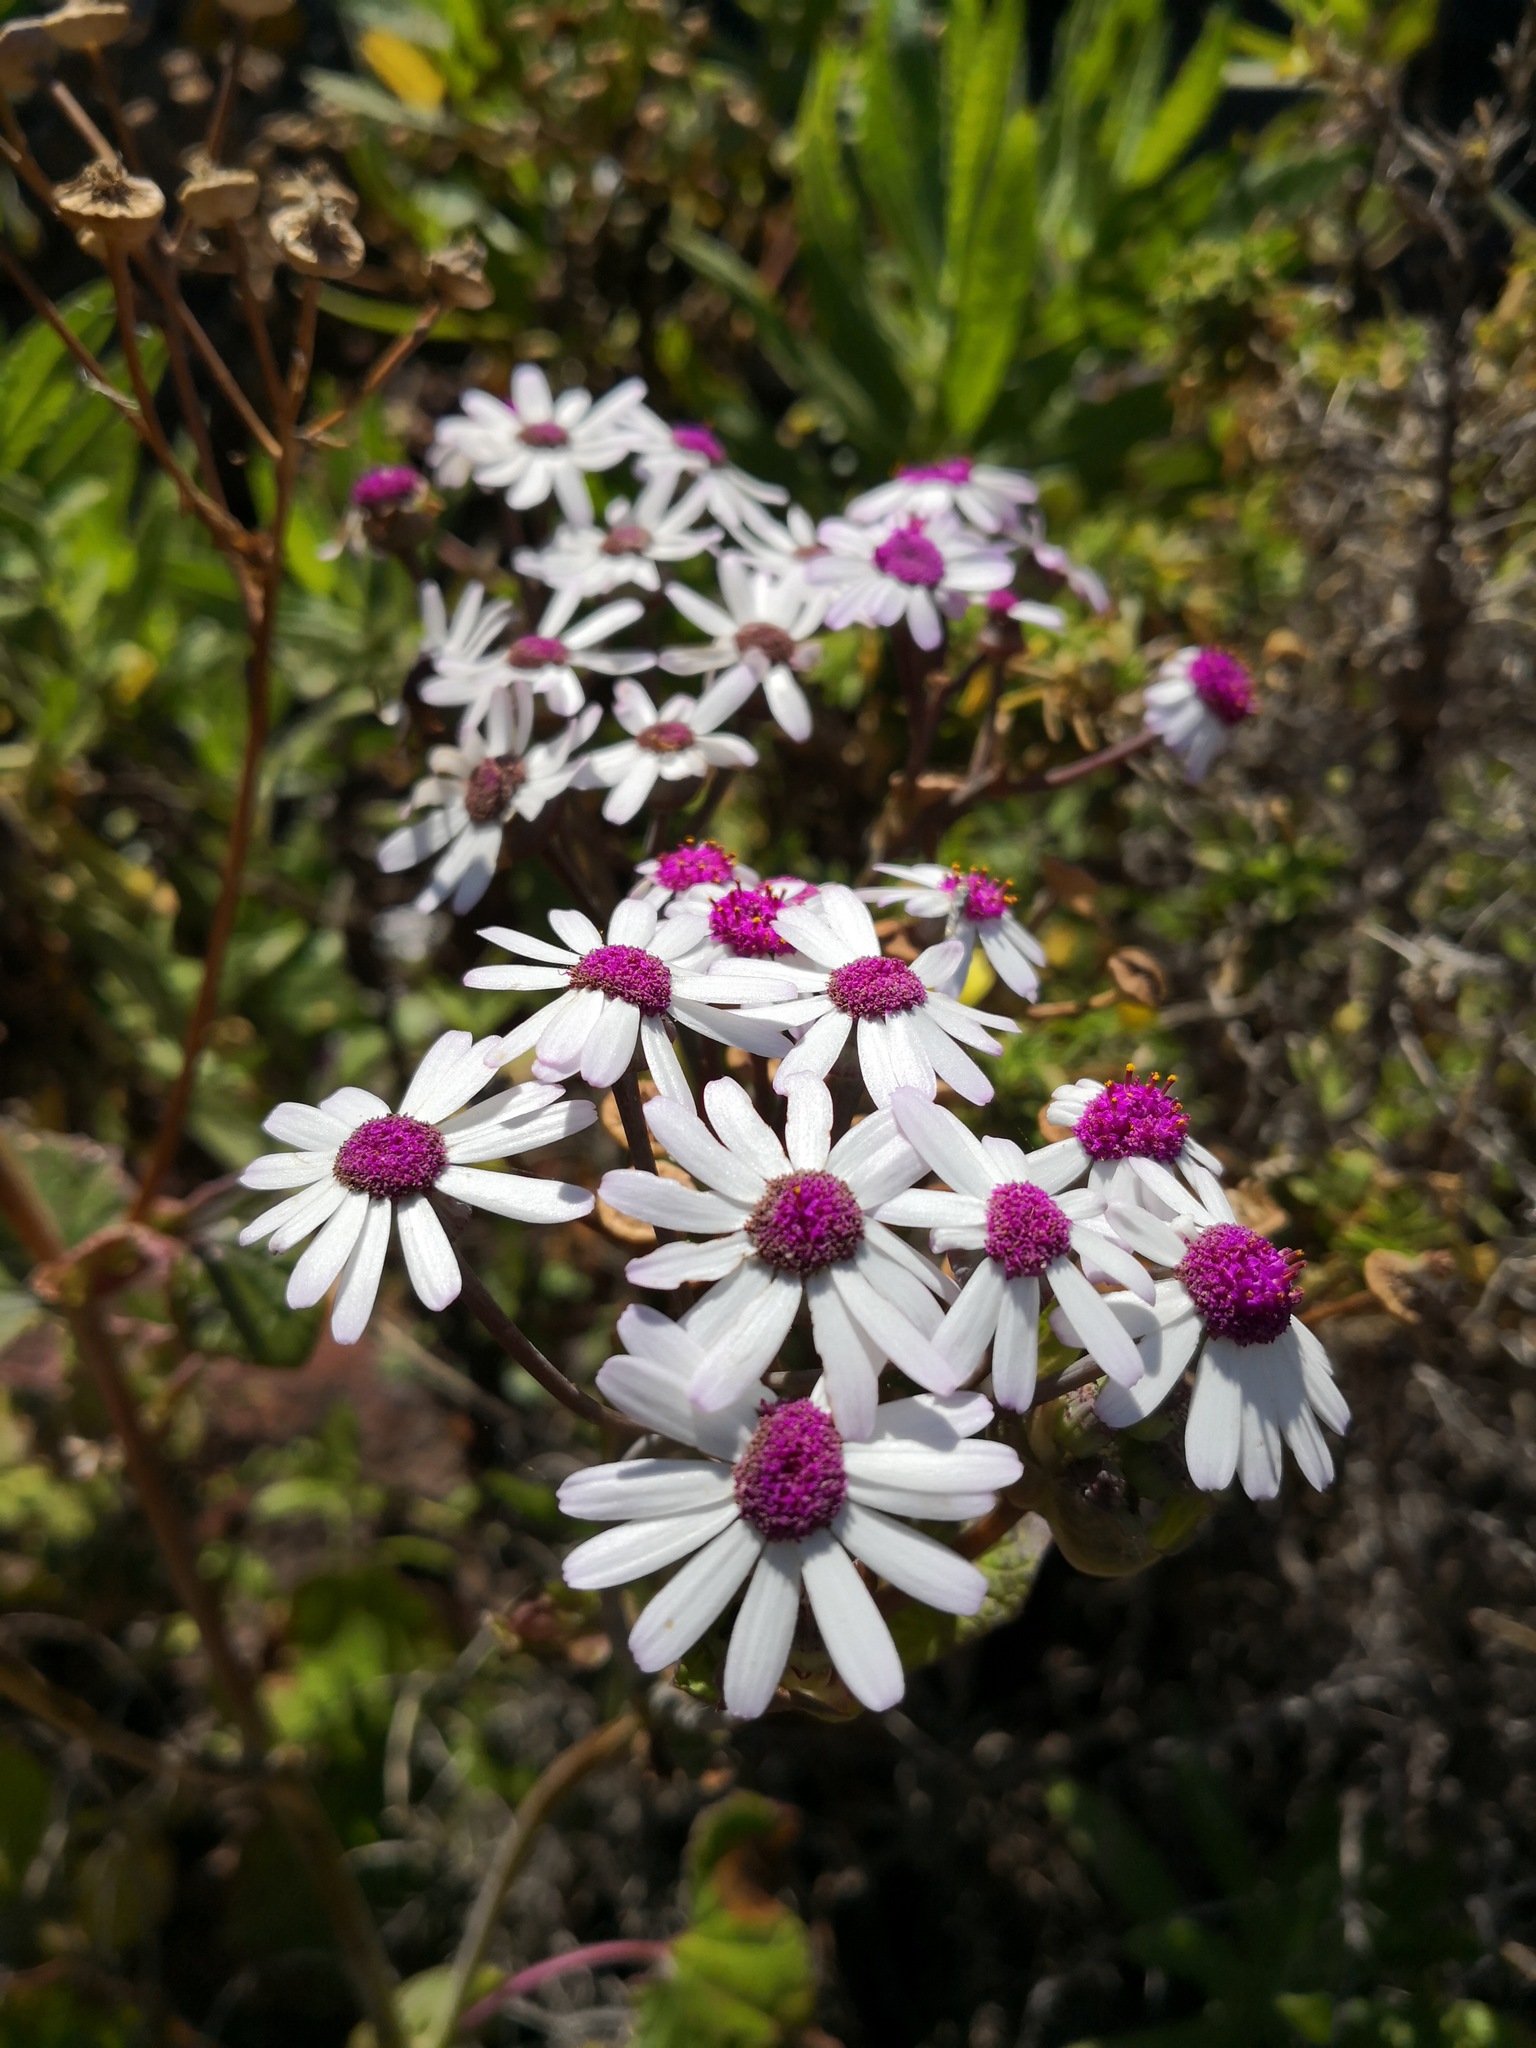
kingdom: Plantae
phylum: Tracheophyta
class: Magnoliopsida
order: Asterales
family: Asteraceae
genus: Pericallis
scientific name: Pericallis webbii
